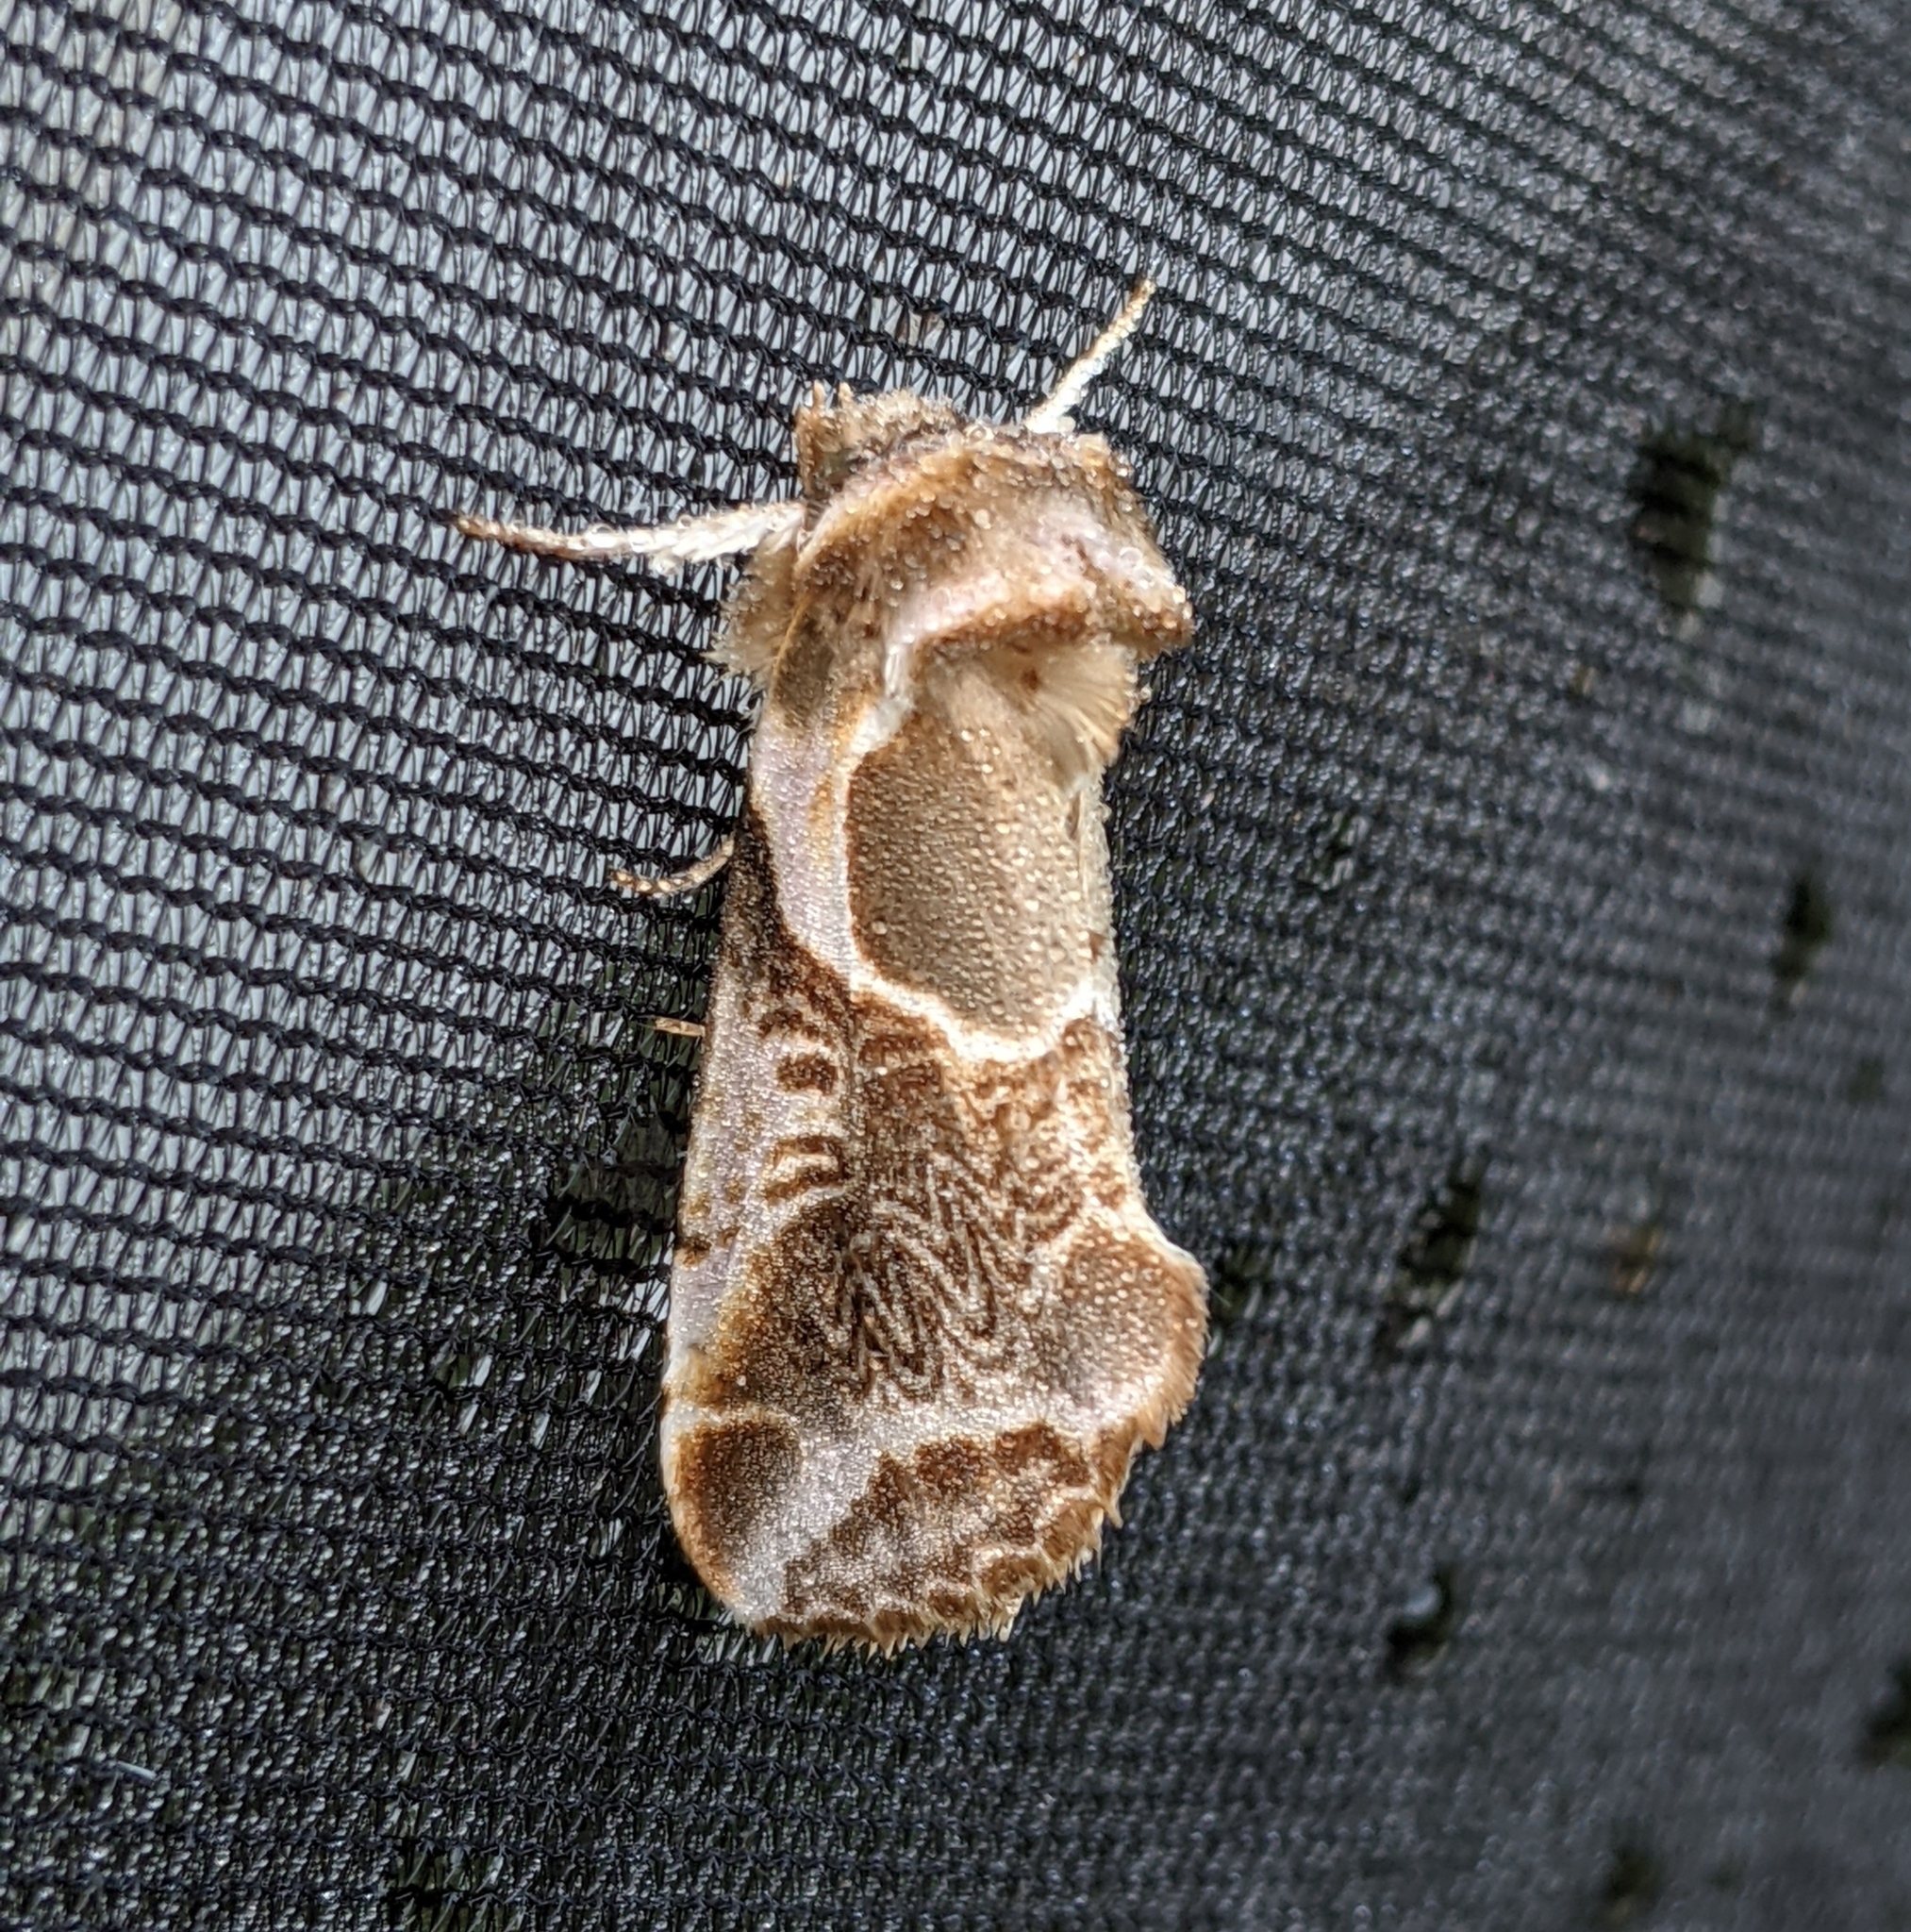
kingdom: Animalia
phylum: Arthropoda
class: Insecta
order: Lepidoptera
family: Drepanidae
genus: Habrosyne
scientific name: Habrosyne scripta
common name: Lettered habrosyne moth
